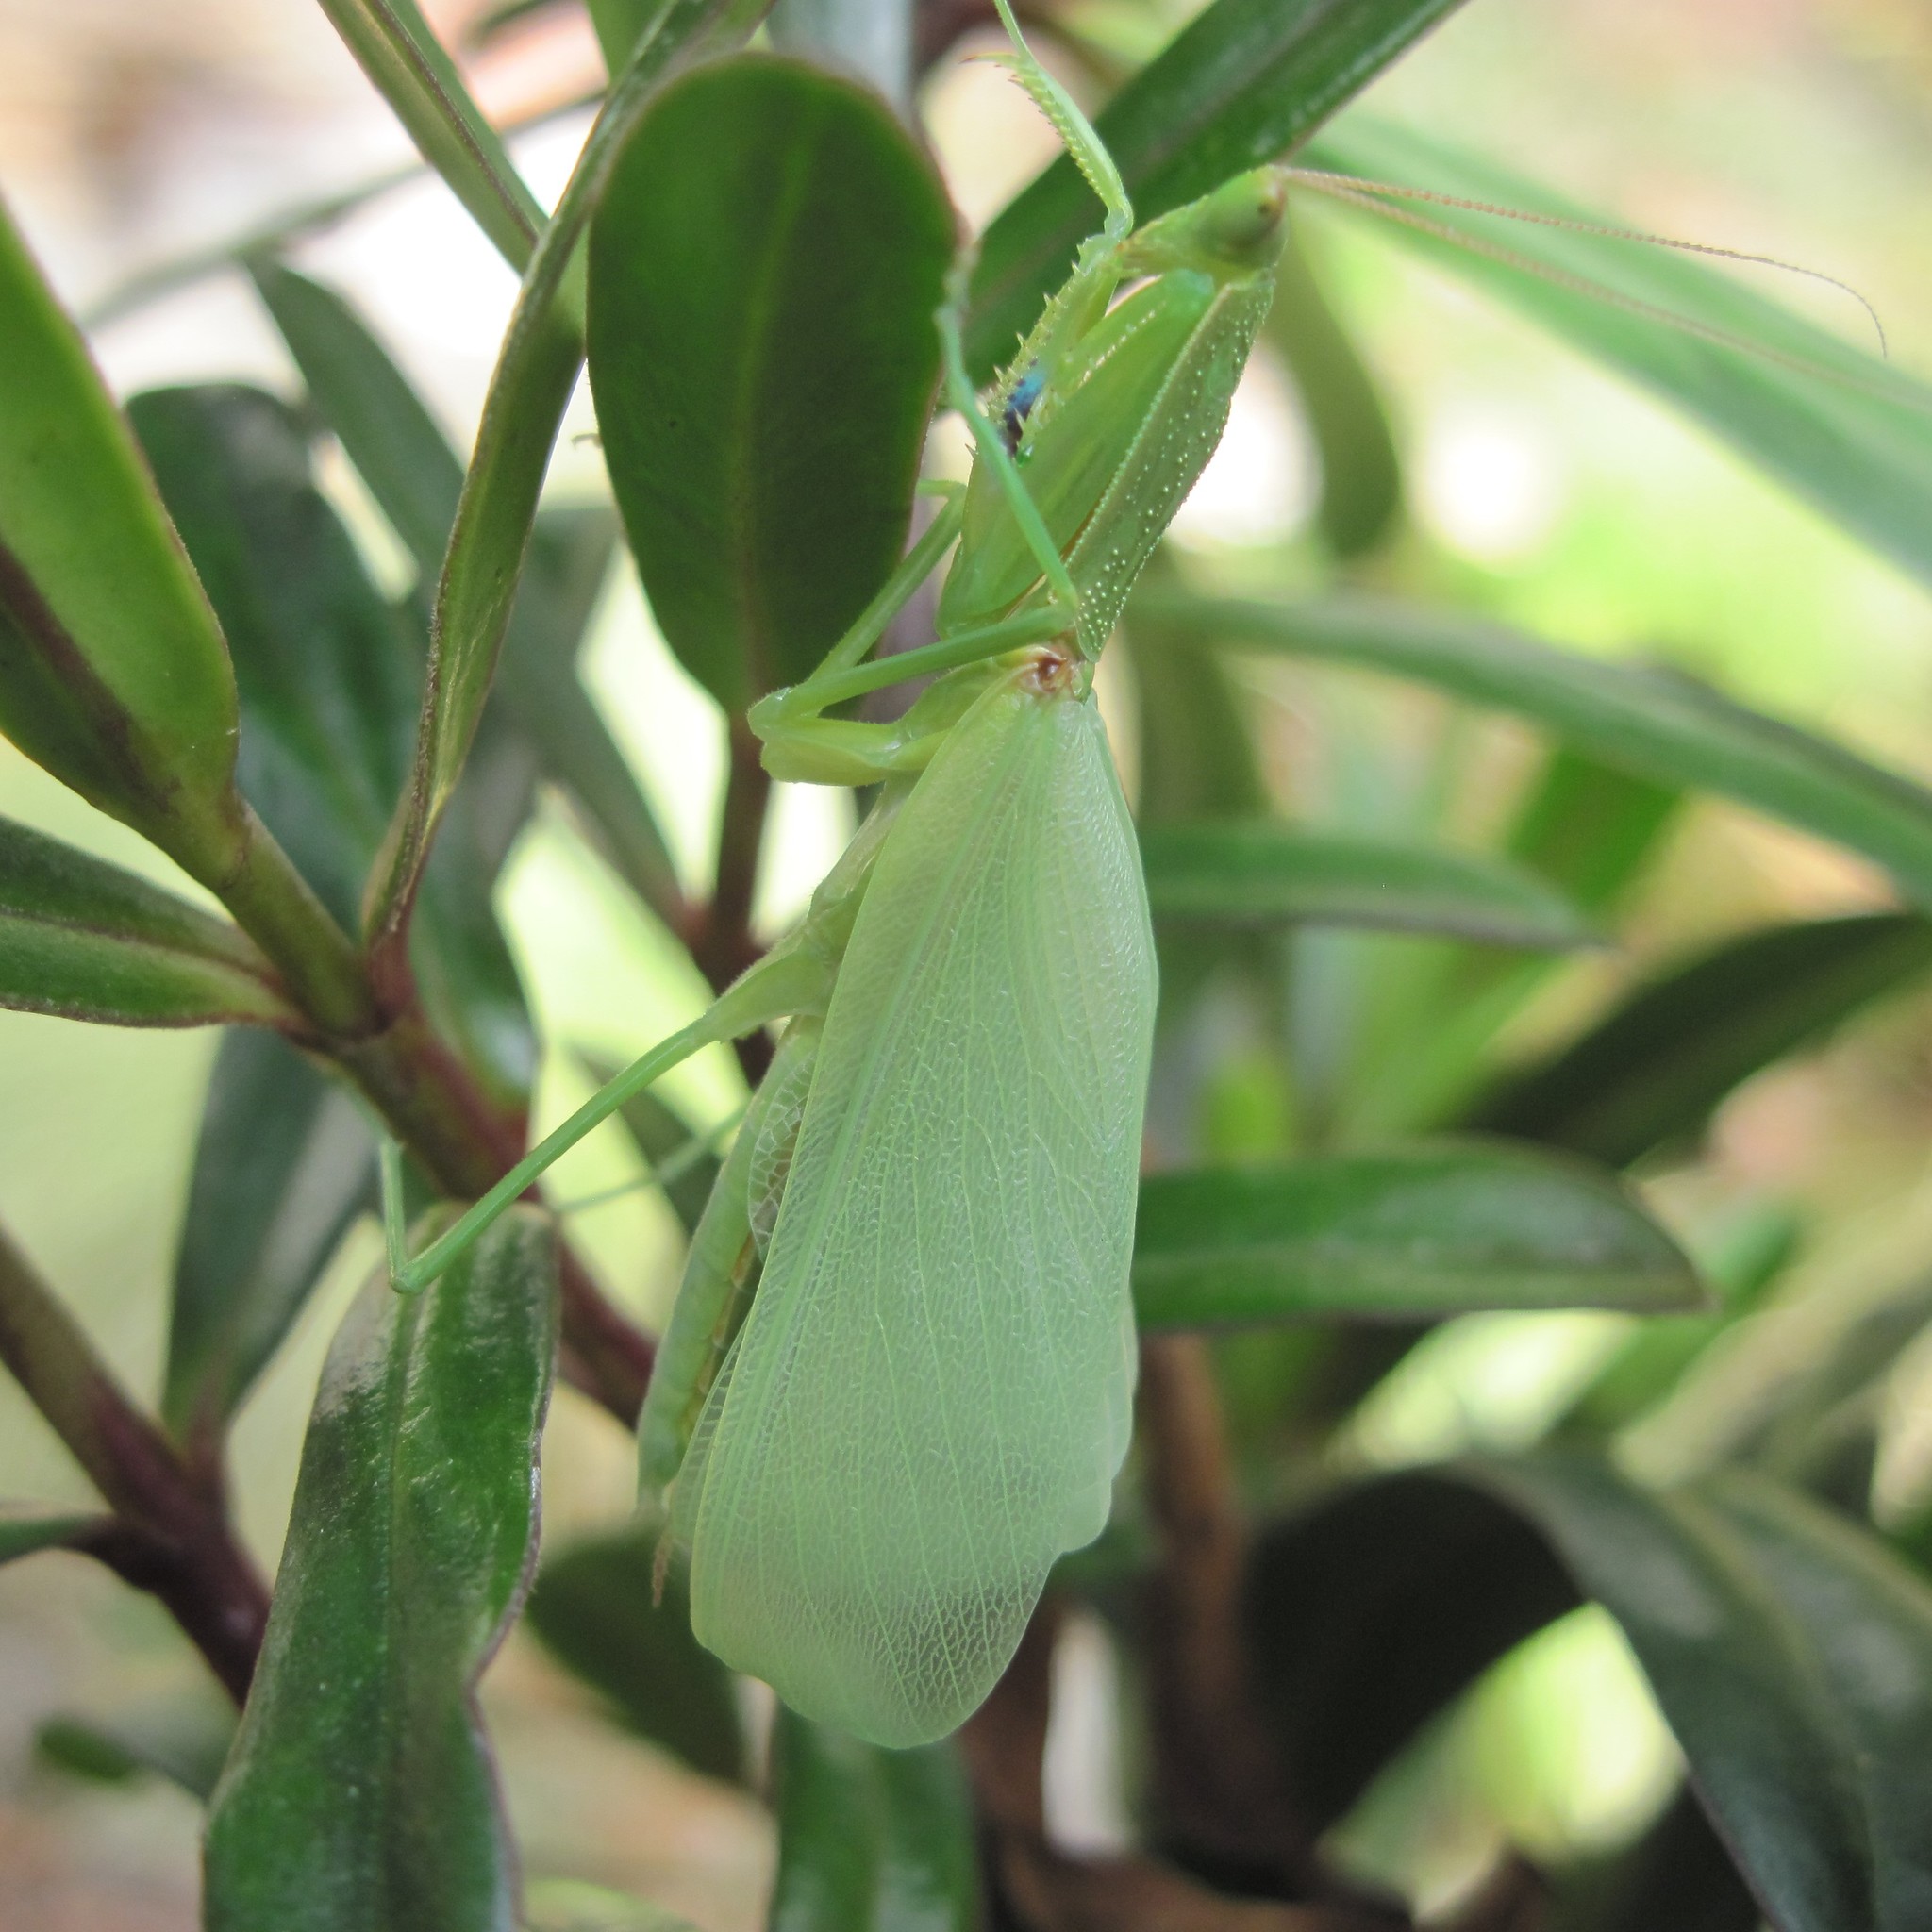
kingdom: Animalia
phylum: Arthropoda
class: Insecta
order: Mantodea
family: Mantidae
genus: Orthodera
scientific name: Orthodera novaezealandiae
